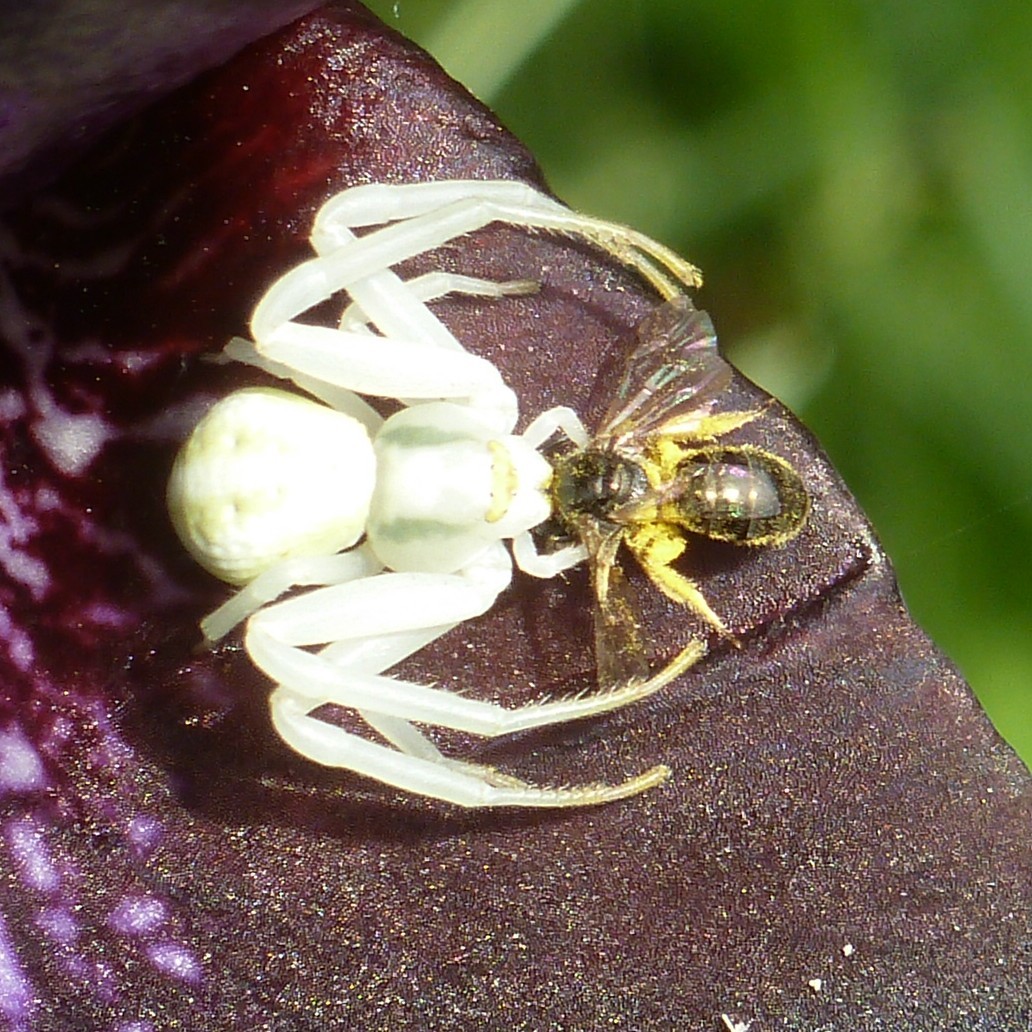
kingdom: Animalia
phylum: Arthropoda
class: Arachnida
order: Araneae
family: Thomisidae
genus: Misumena
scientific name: Misumena vatia
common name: Goldenrod crab spider
